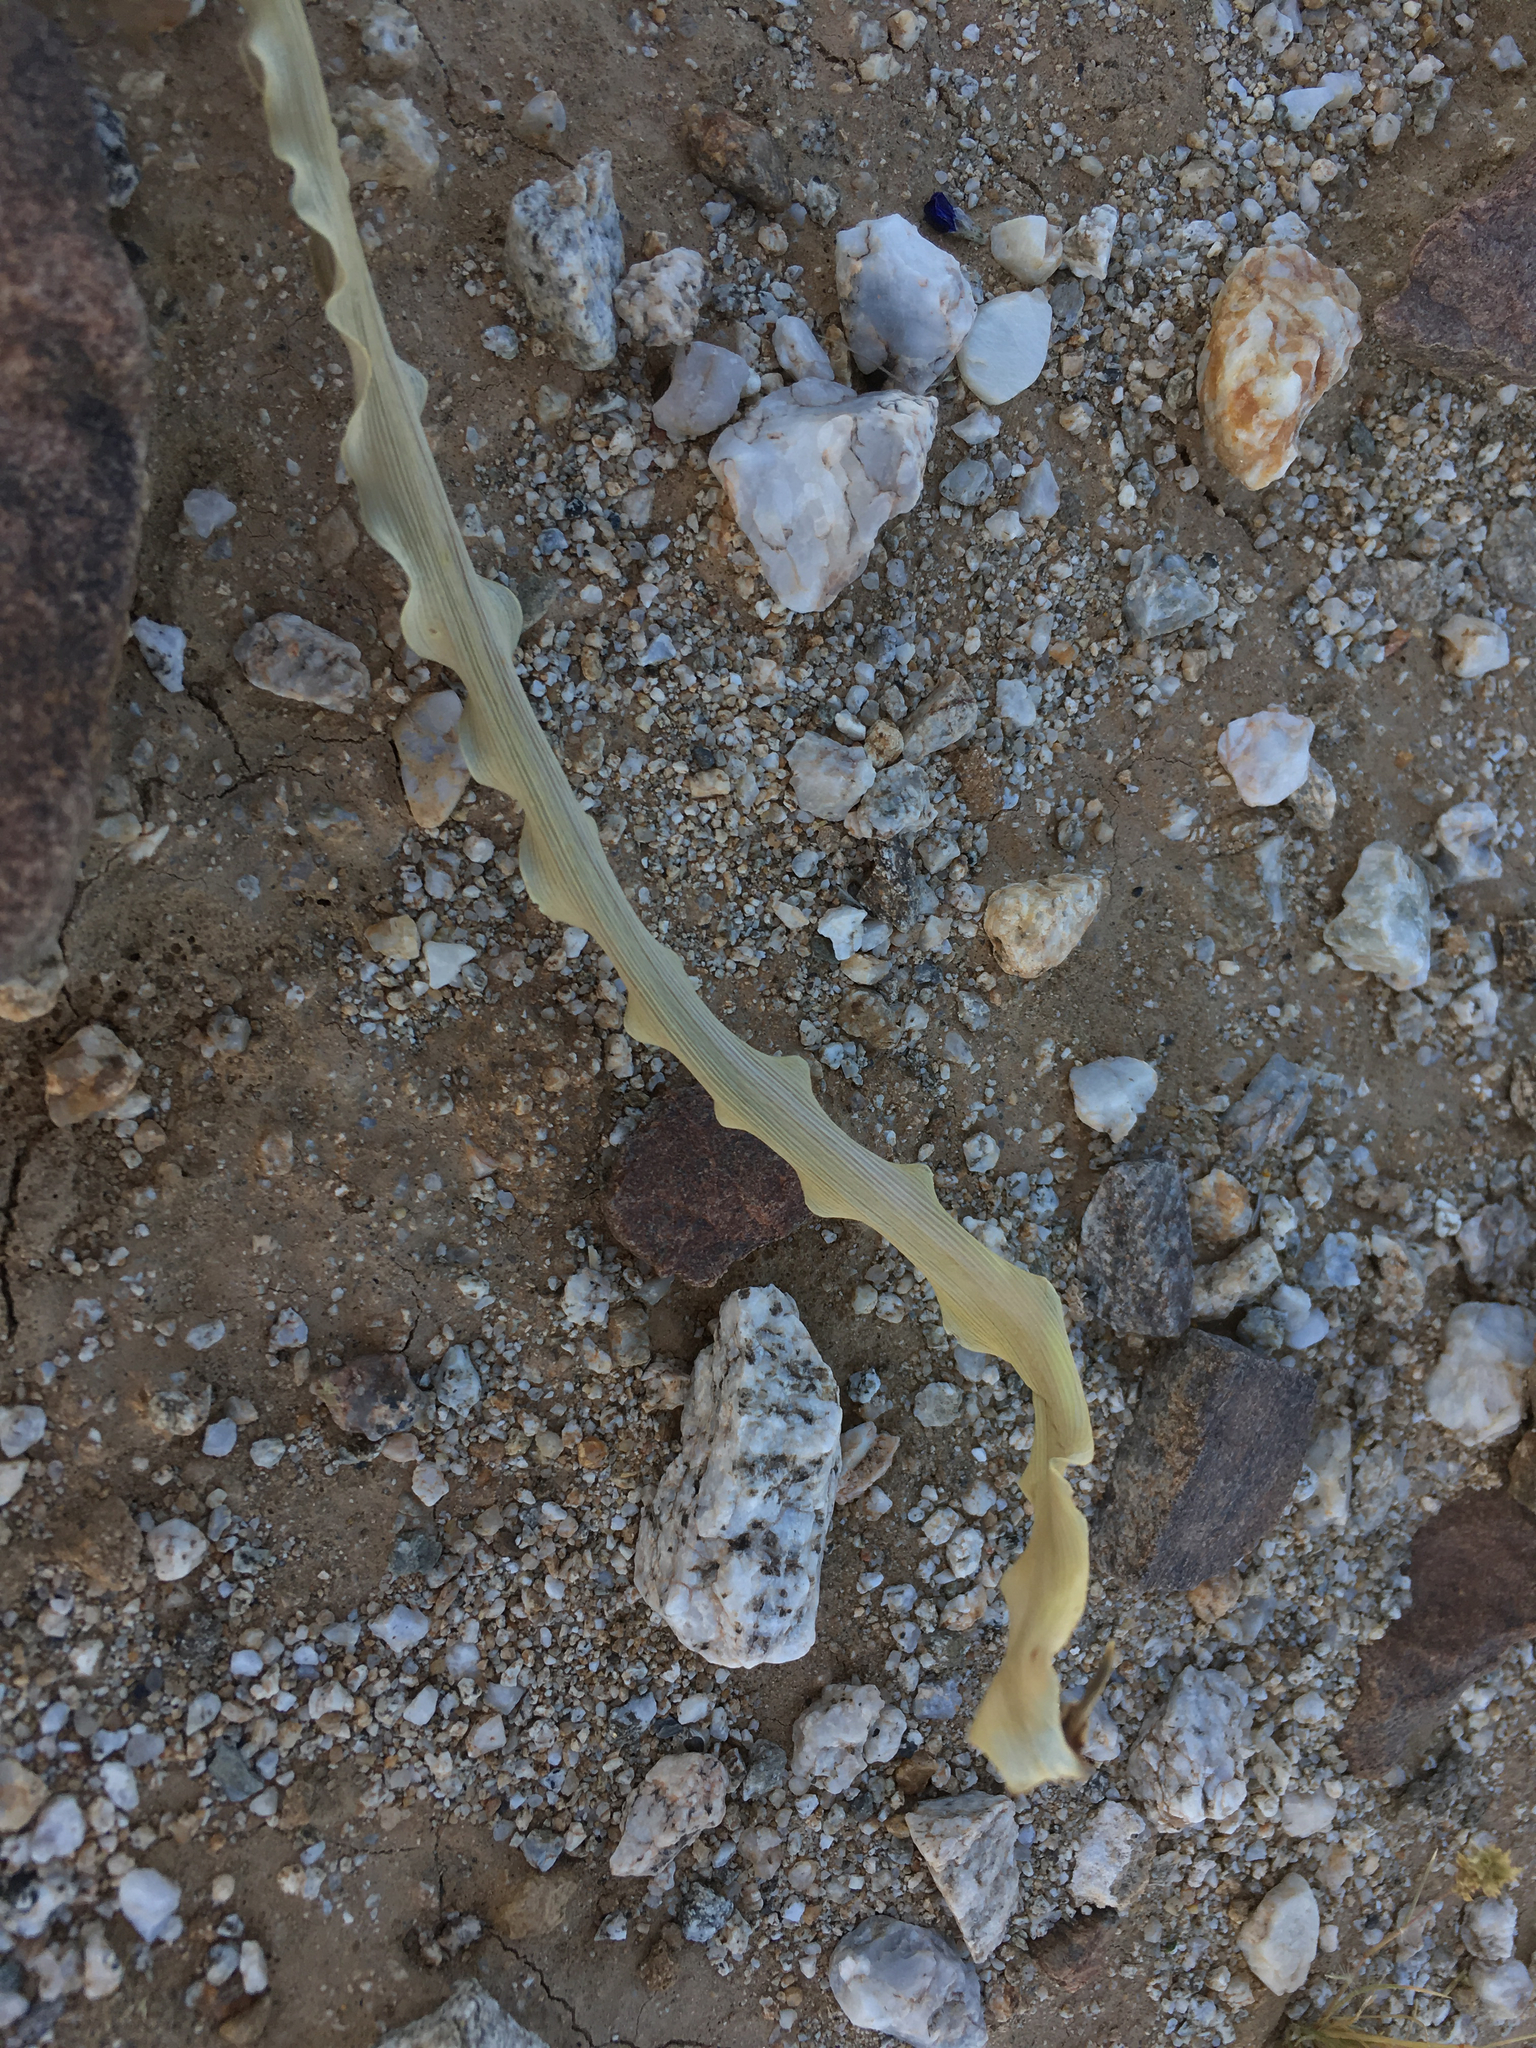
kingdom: Plantae
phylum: Tracheophyta
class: Liliopsida
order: Asparagales
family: Asparagaceae
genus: Hesperocallis
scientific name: Hesperocallis undulata
